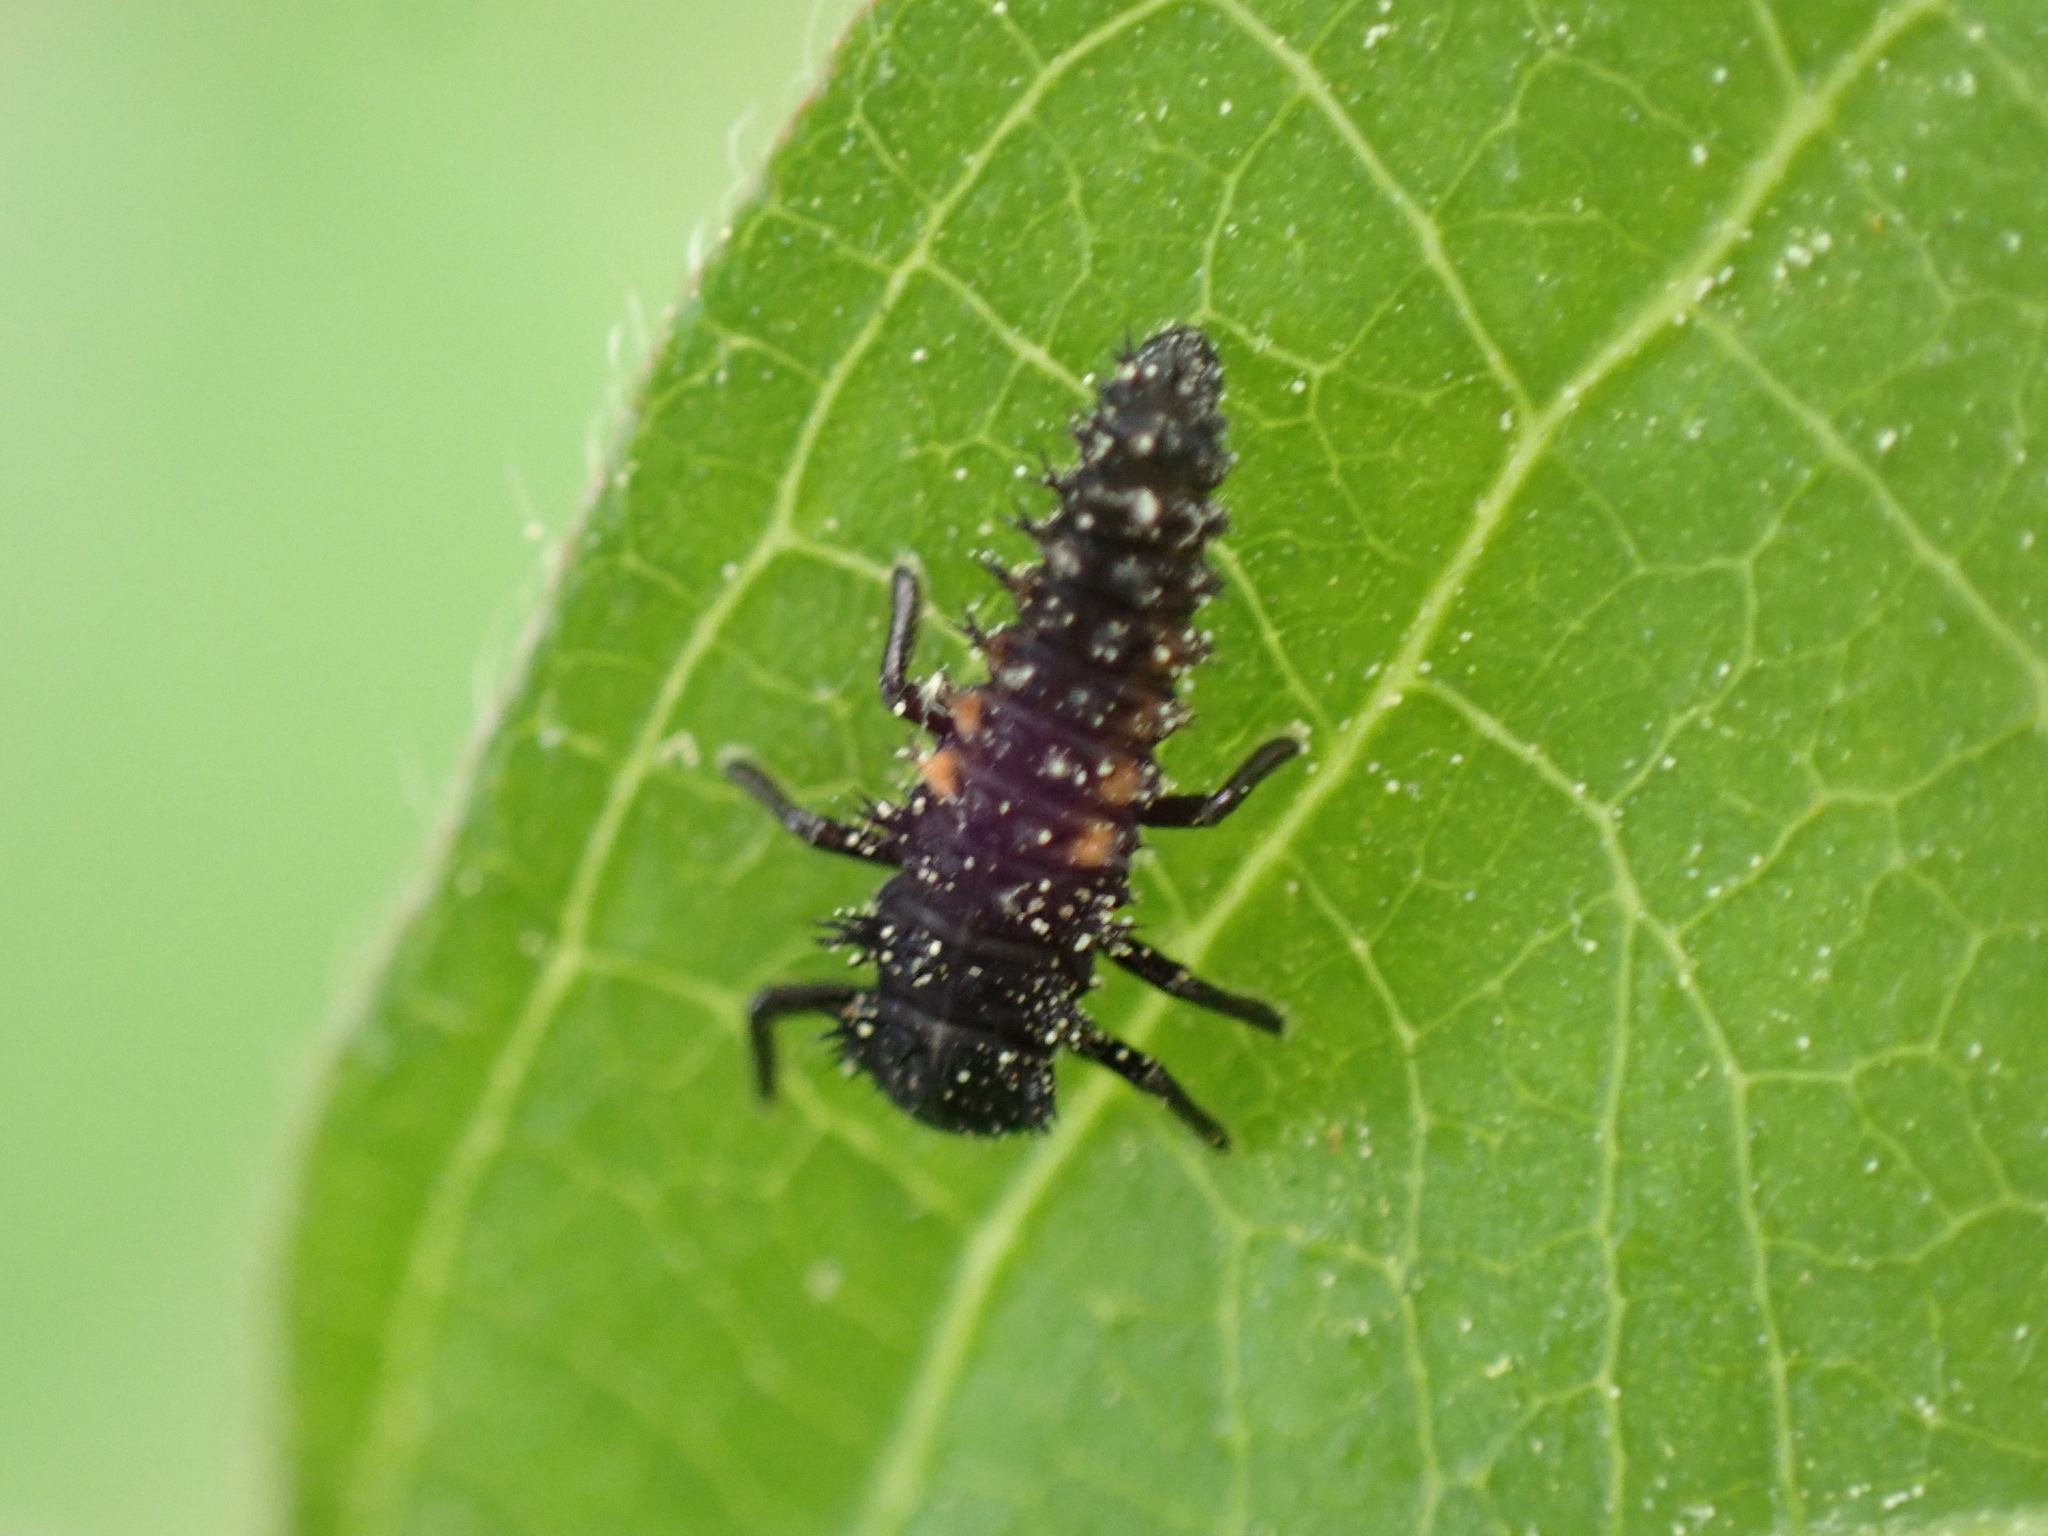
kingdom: Animalia
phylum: Arthropoda
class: Insecta
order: Coleoptera
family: Coccinellidae
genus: Harmonia
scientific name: Harmonia axyridis
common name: Harlequin ladybird
